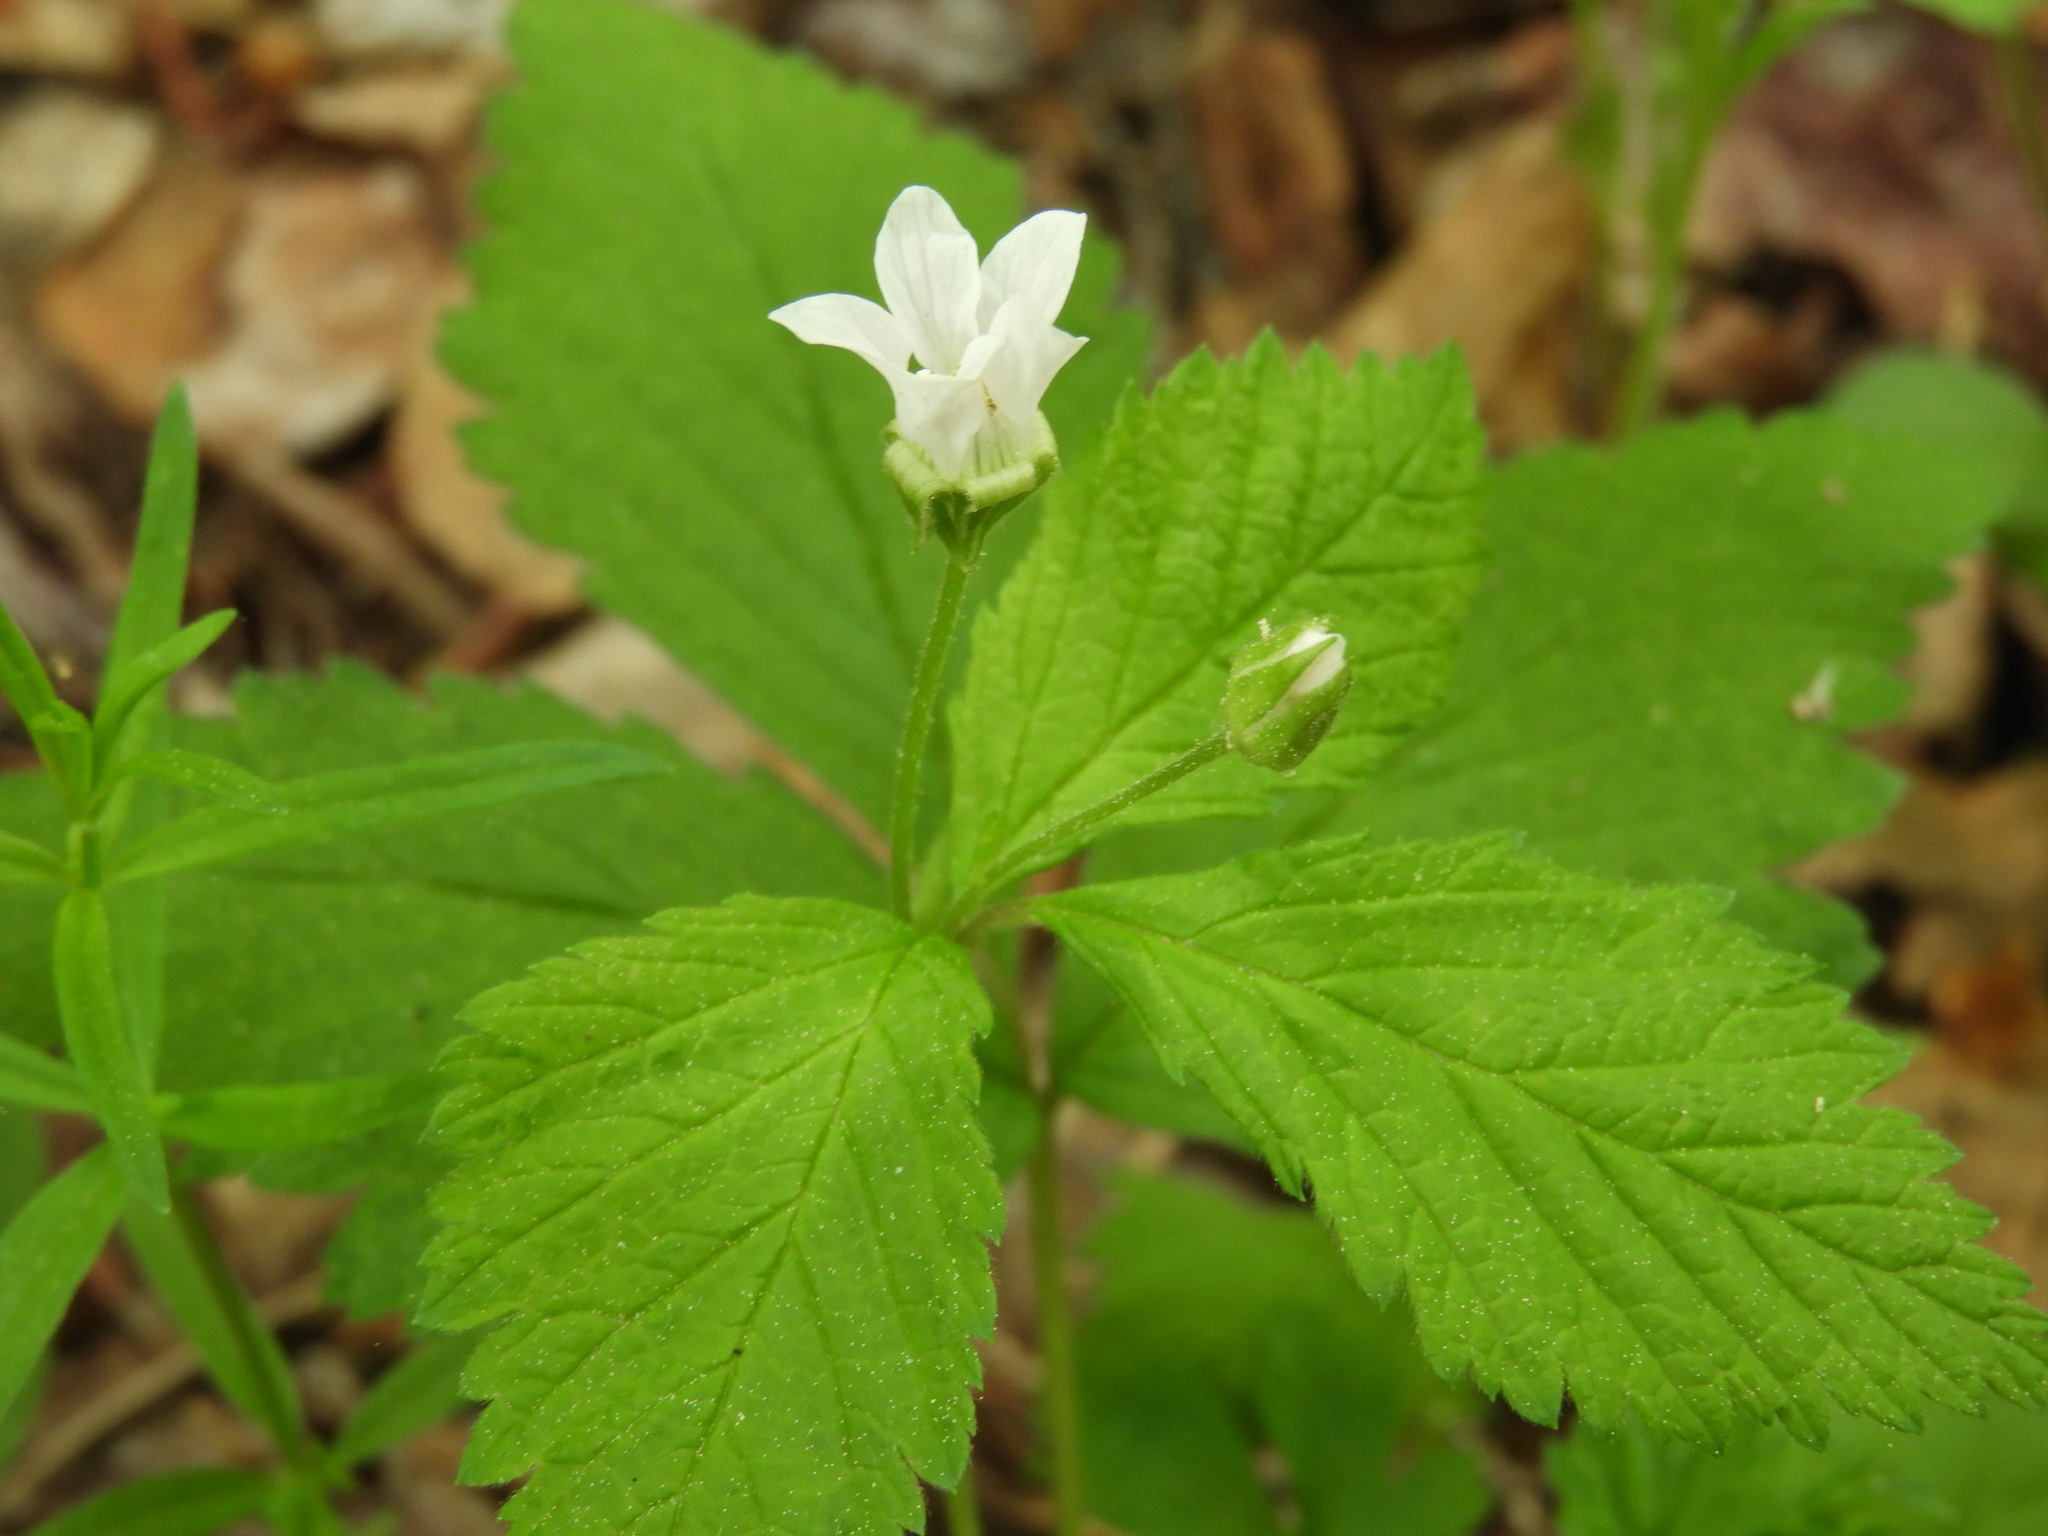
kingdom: Plantae
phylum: Tracheophyta
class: Magnoliopsida
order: Rosales
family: Rosaceae
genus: Rubus
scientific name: Rubus pubescens
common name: Dwarf raspberry
